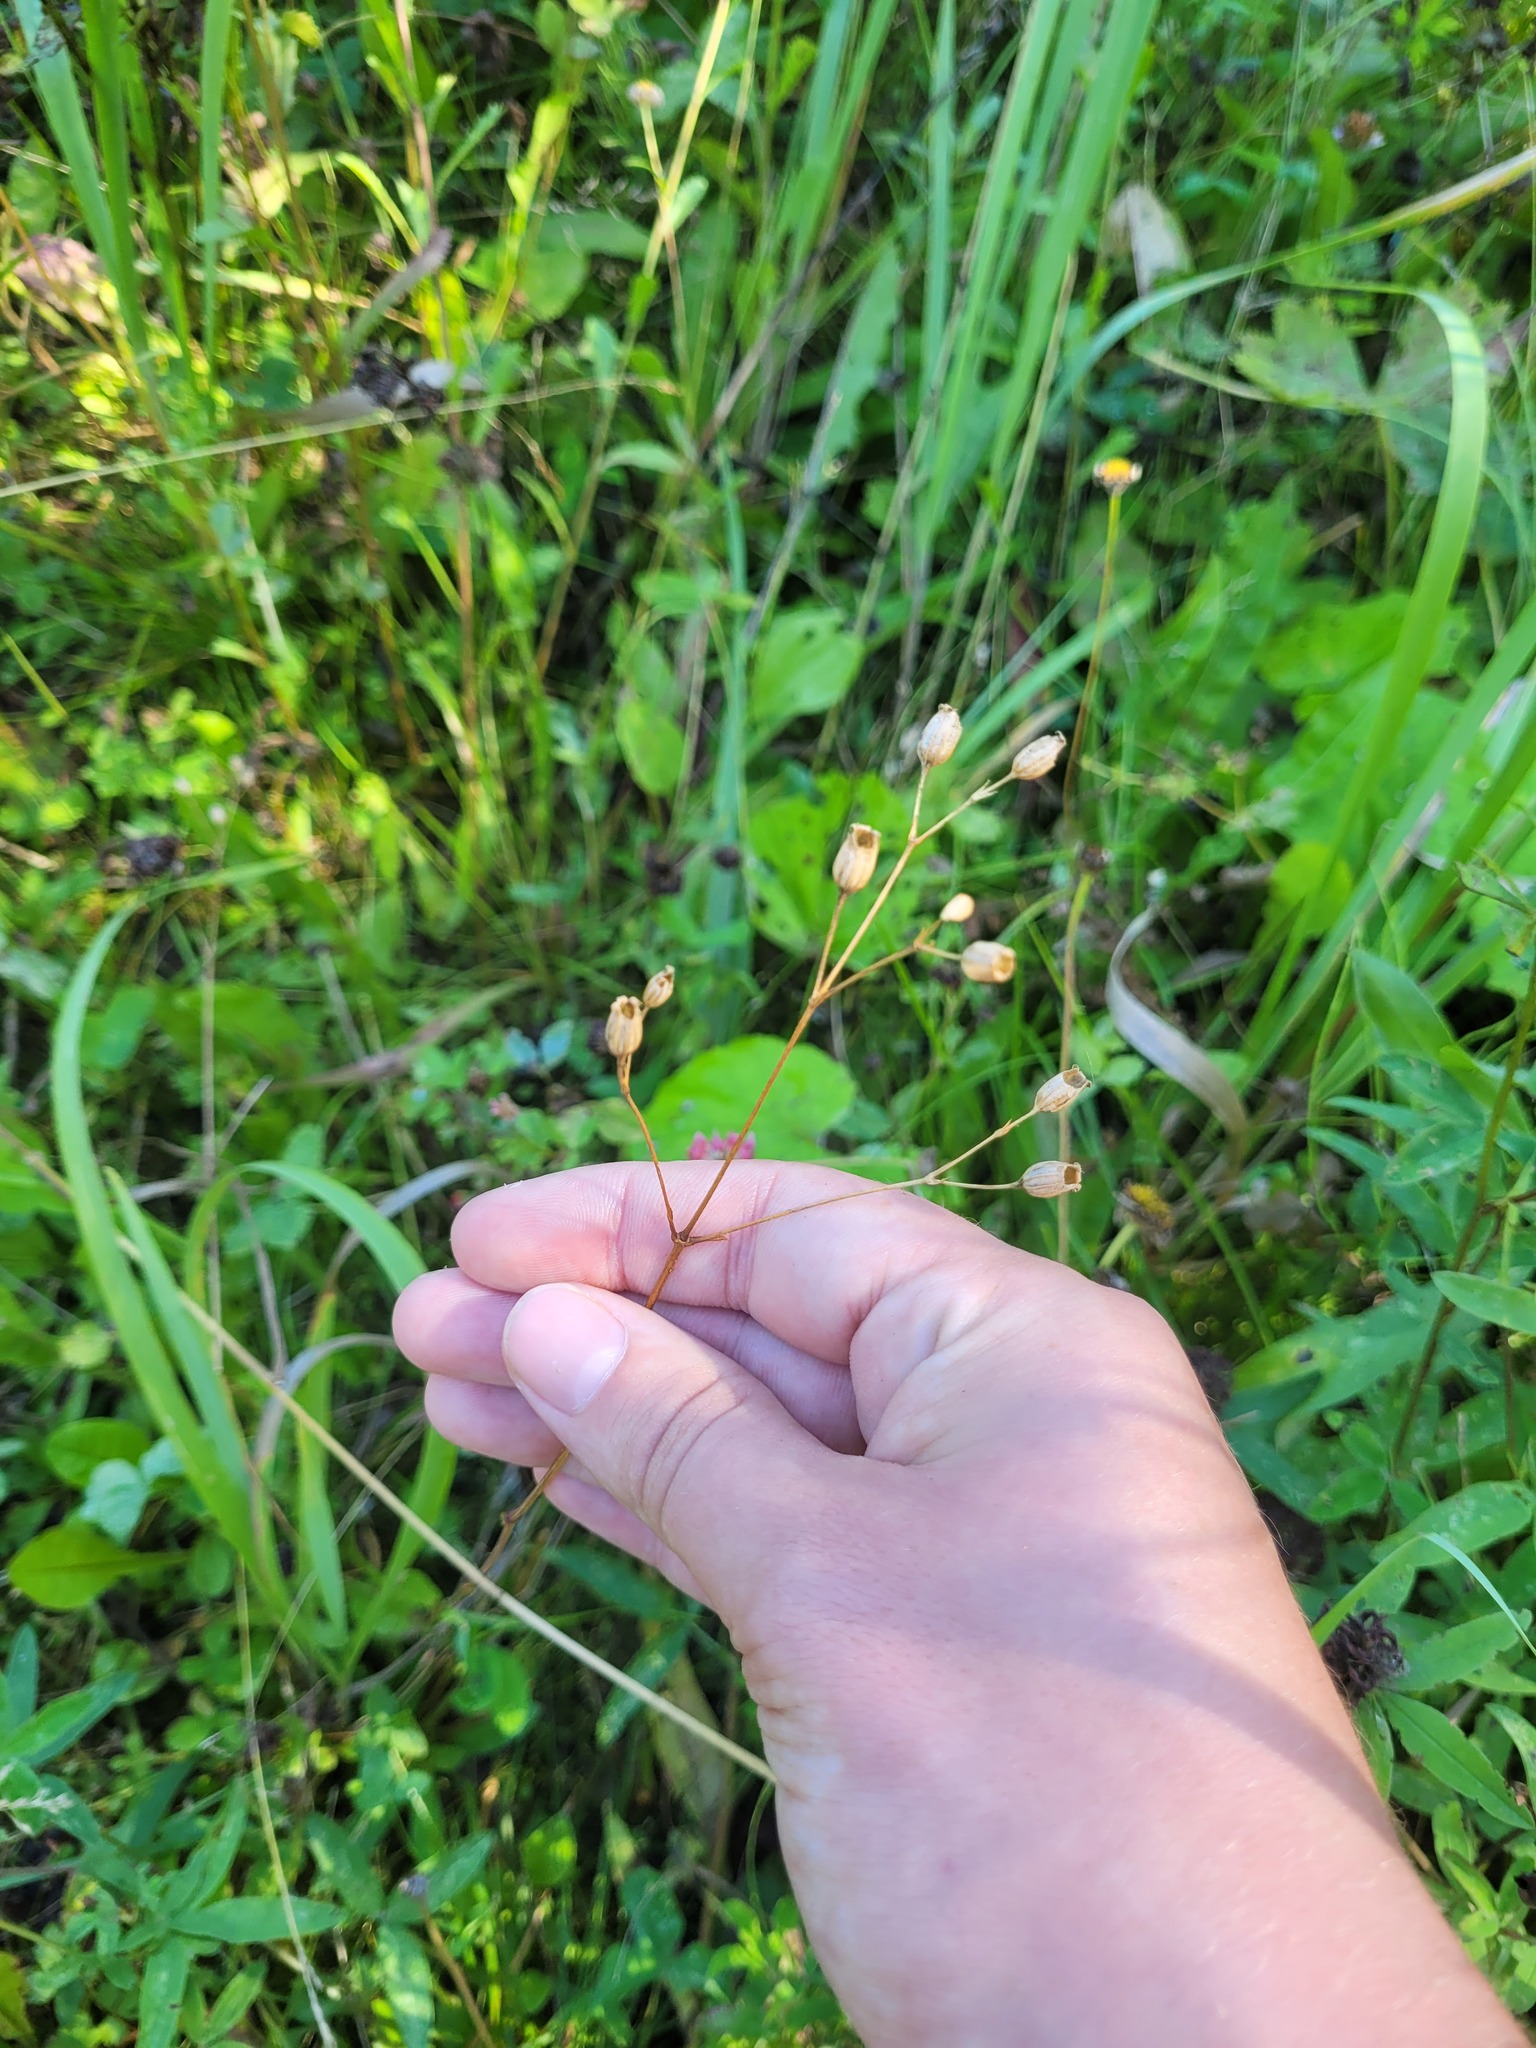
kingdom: Plantae
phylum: Tracheophyta
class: Magnoliopsida
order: Caryophyllales
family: Caryophyllaceae
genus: Silene
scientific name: Silene flos-cuculi
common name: Ragged-robin
